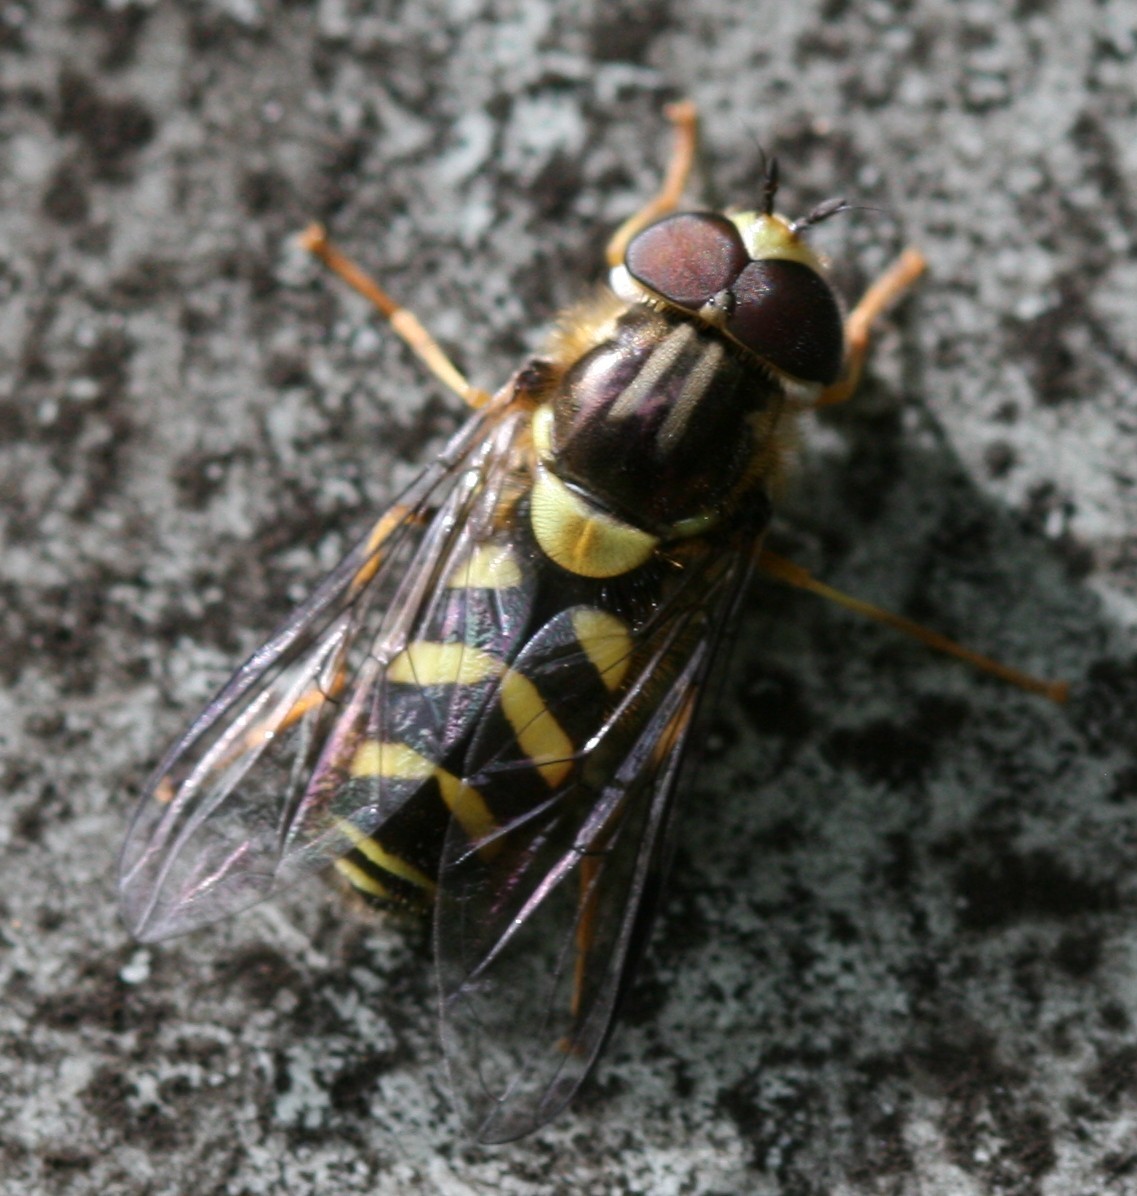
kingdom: Animalia
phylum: Arthropoda
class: Insecta
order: Diptera
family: Syrphidae
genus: Dasysyrphus
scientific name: Dasysyrphus albostriatus
